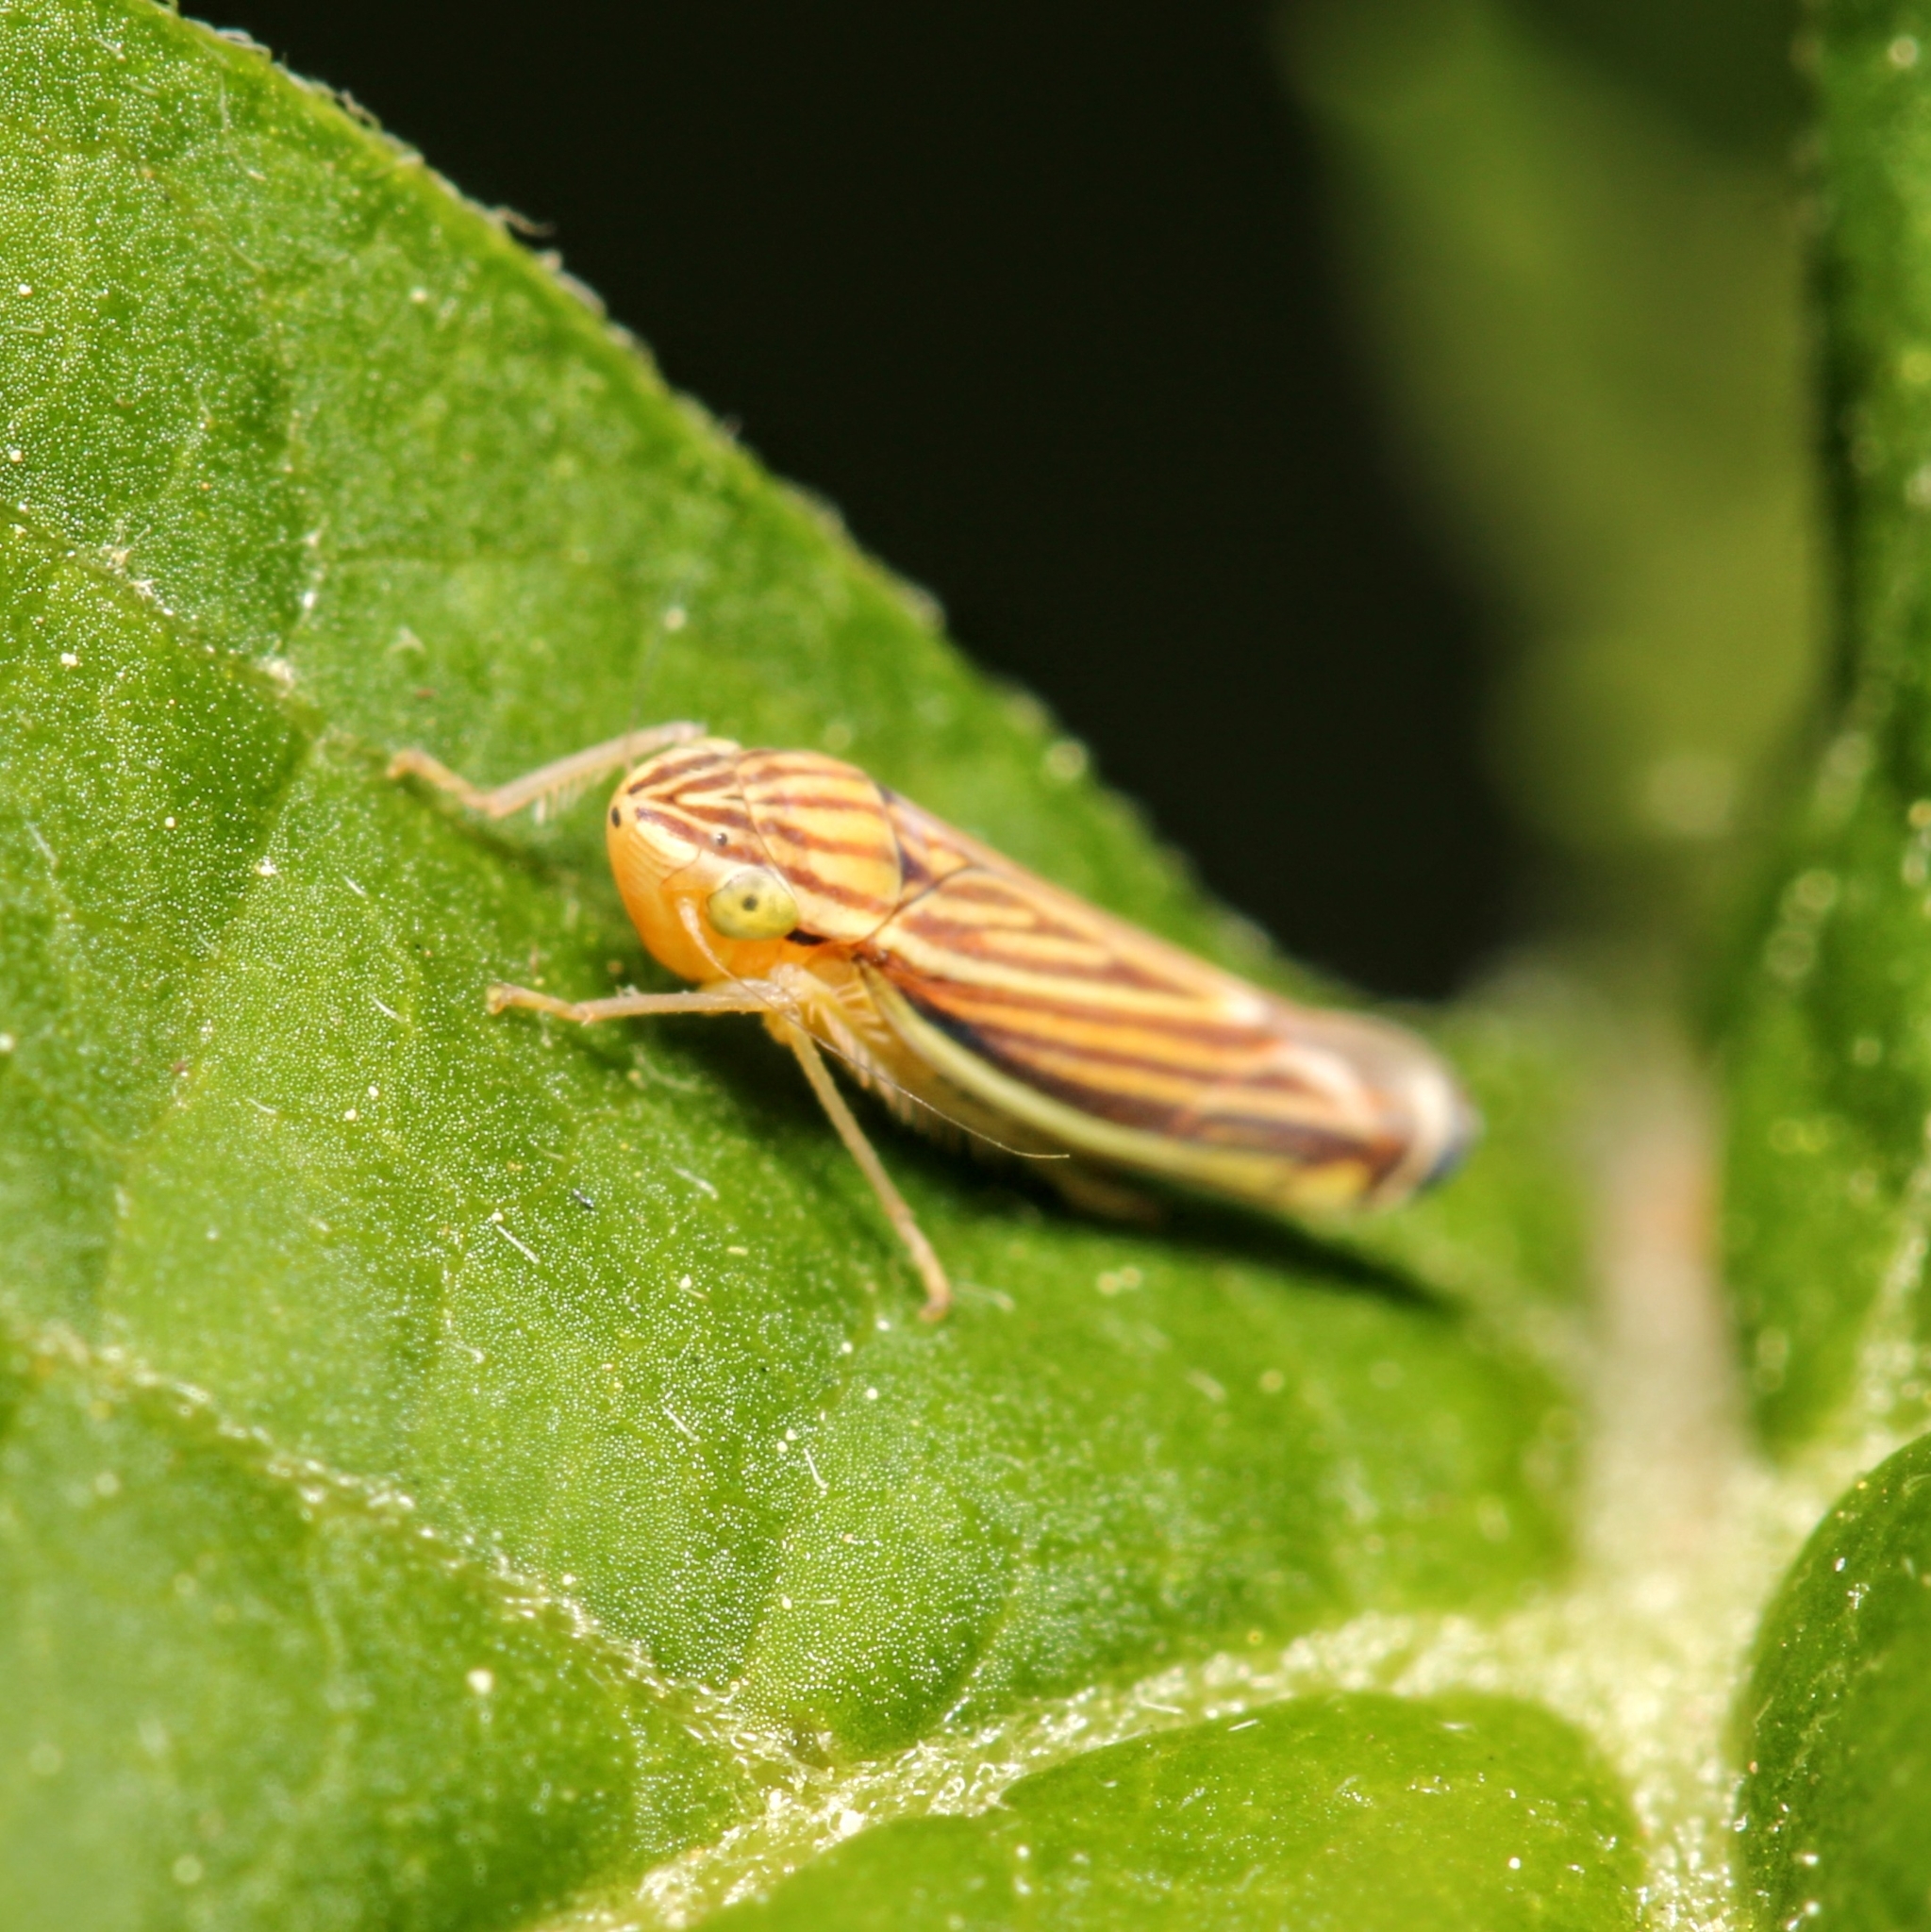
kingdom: Animalia
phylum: Arthropoda
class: Insecta
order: Hemiptera
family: Cicadellidae
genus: Sibovia
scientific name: Sibovia occatoria
